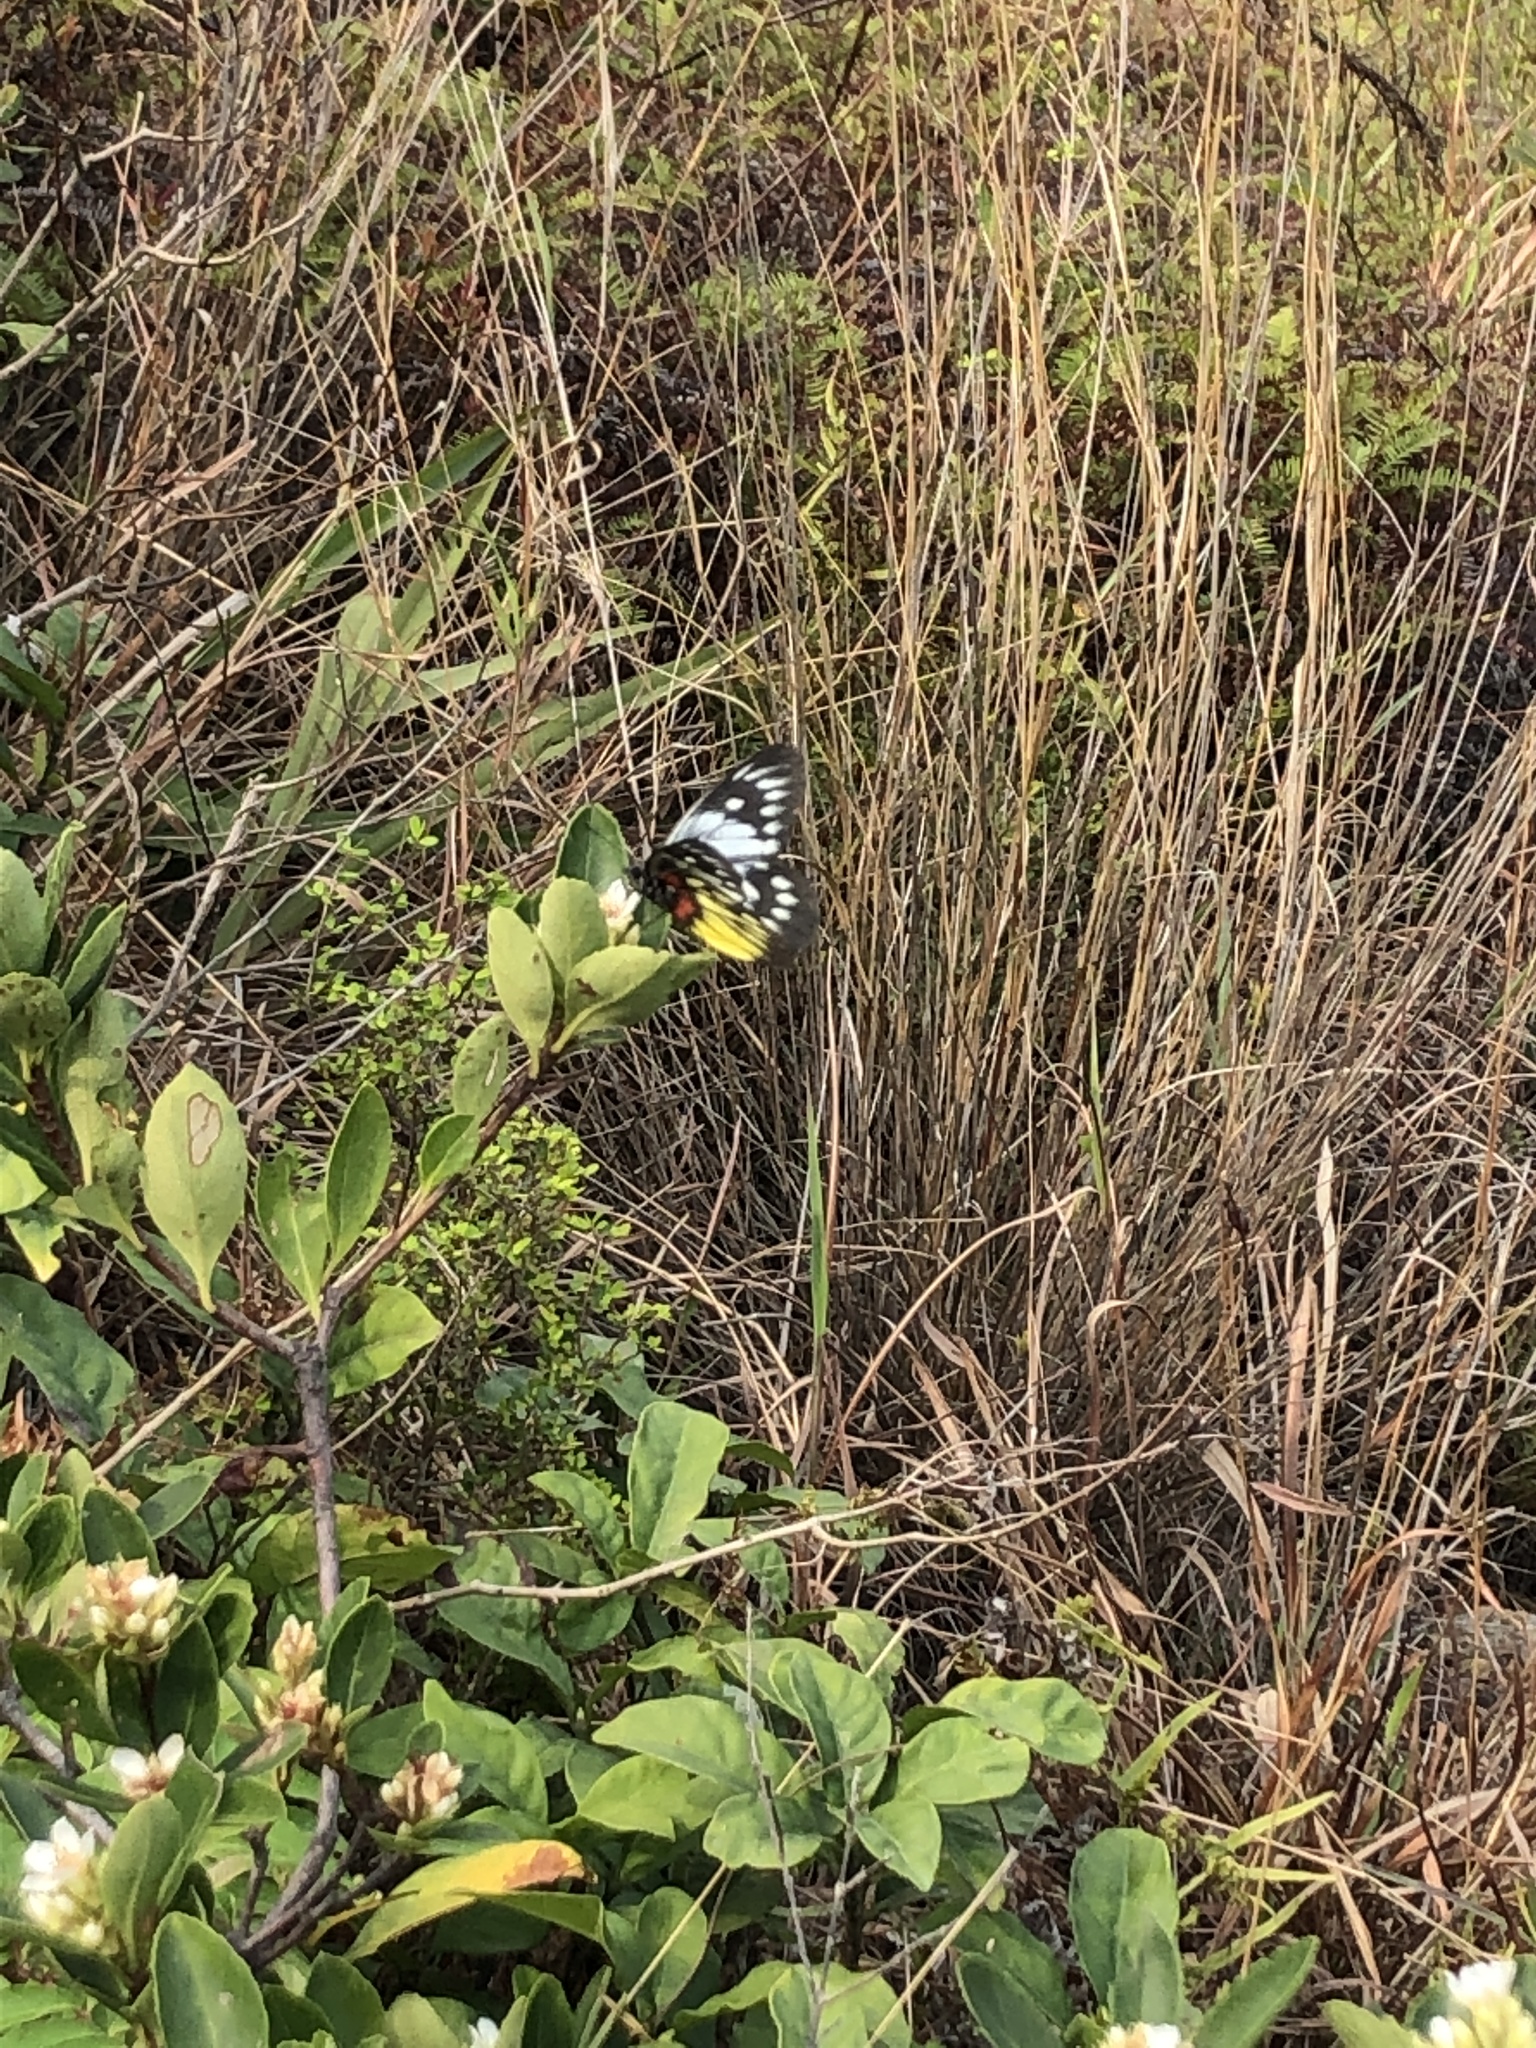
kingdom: Animalia
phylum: Arthropoda
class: Insecta
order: Lepidoptera
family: Pieridae
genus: Delias
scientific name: Delias pasithoe
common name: Red-base jezebel
